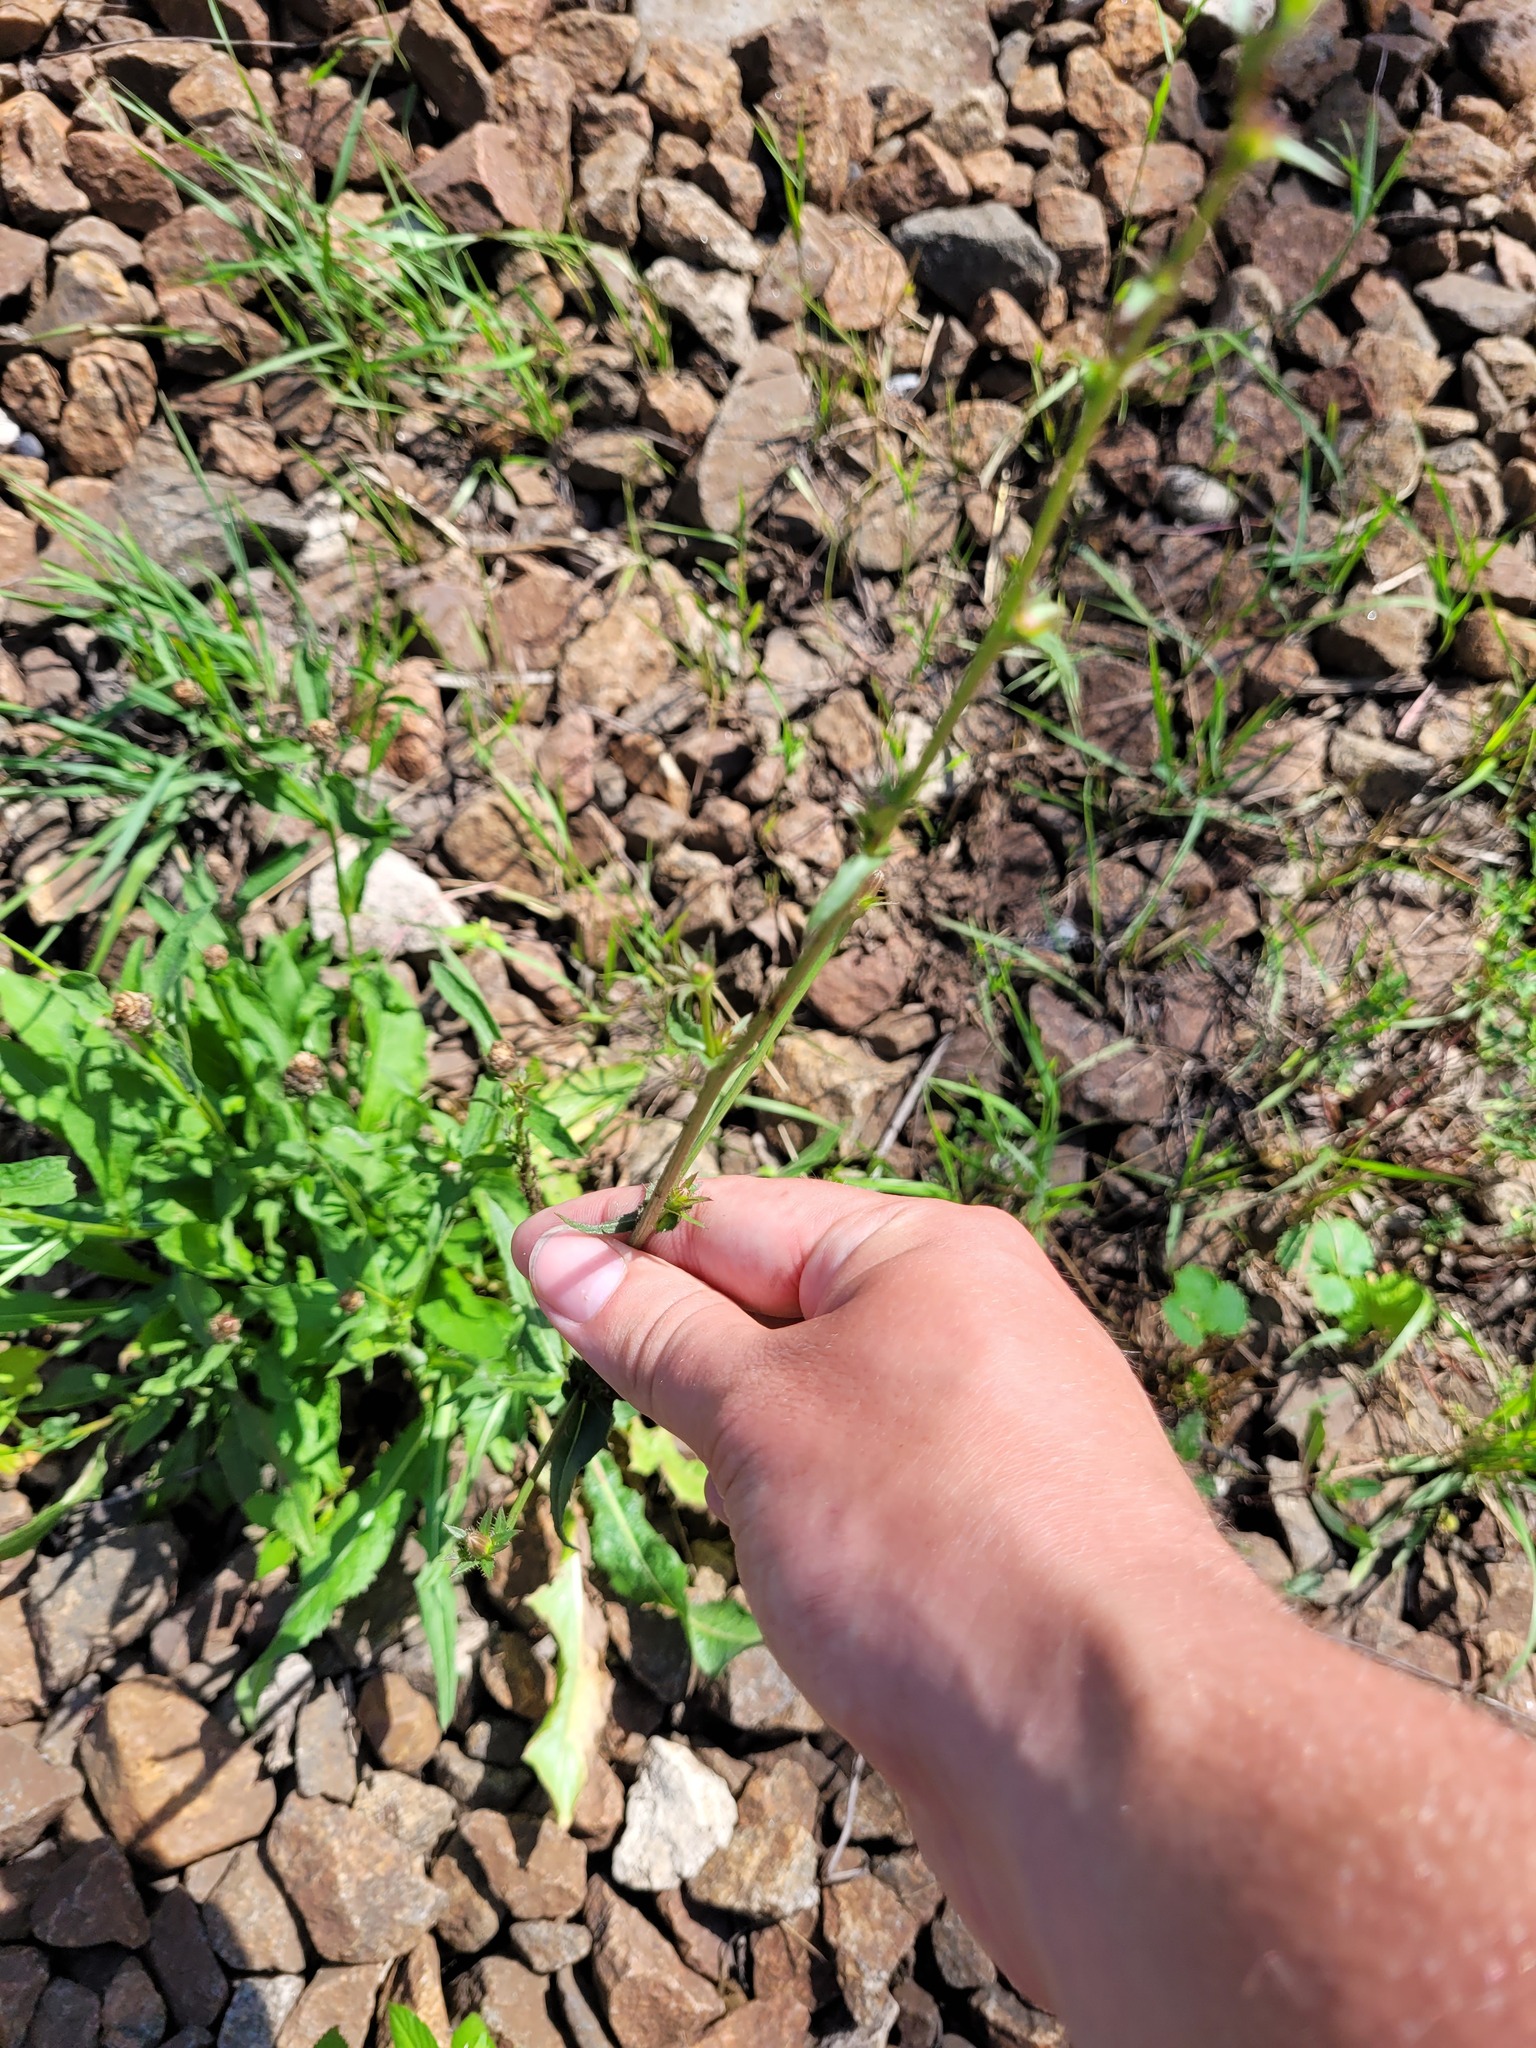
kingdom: Plantae
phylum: Tracheophyta
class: Magnoliopsida
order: Asterales
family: Asteraceae
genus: Cichorium
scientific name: Cichorium intybus
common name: Chicory
